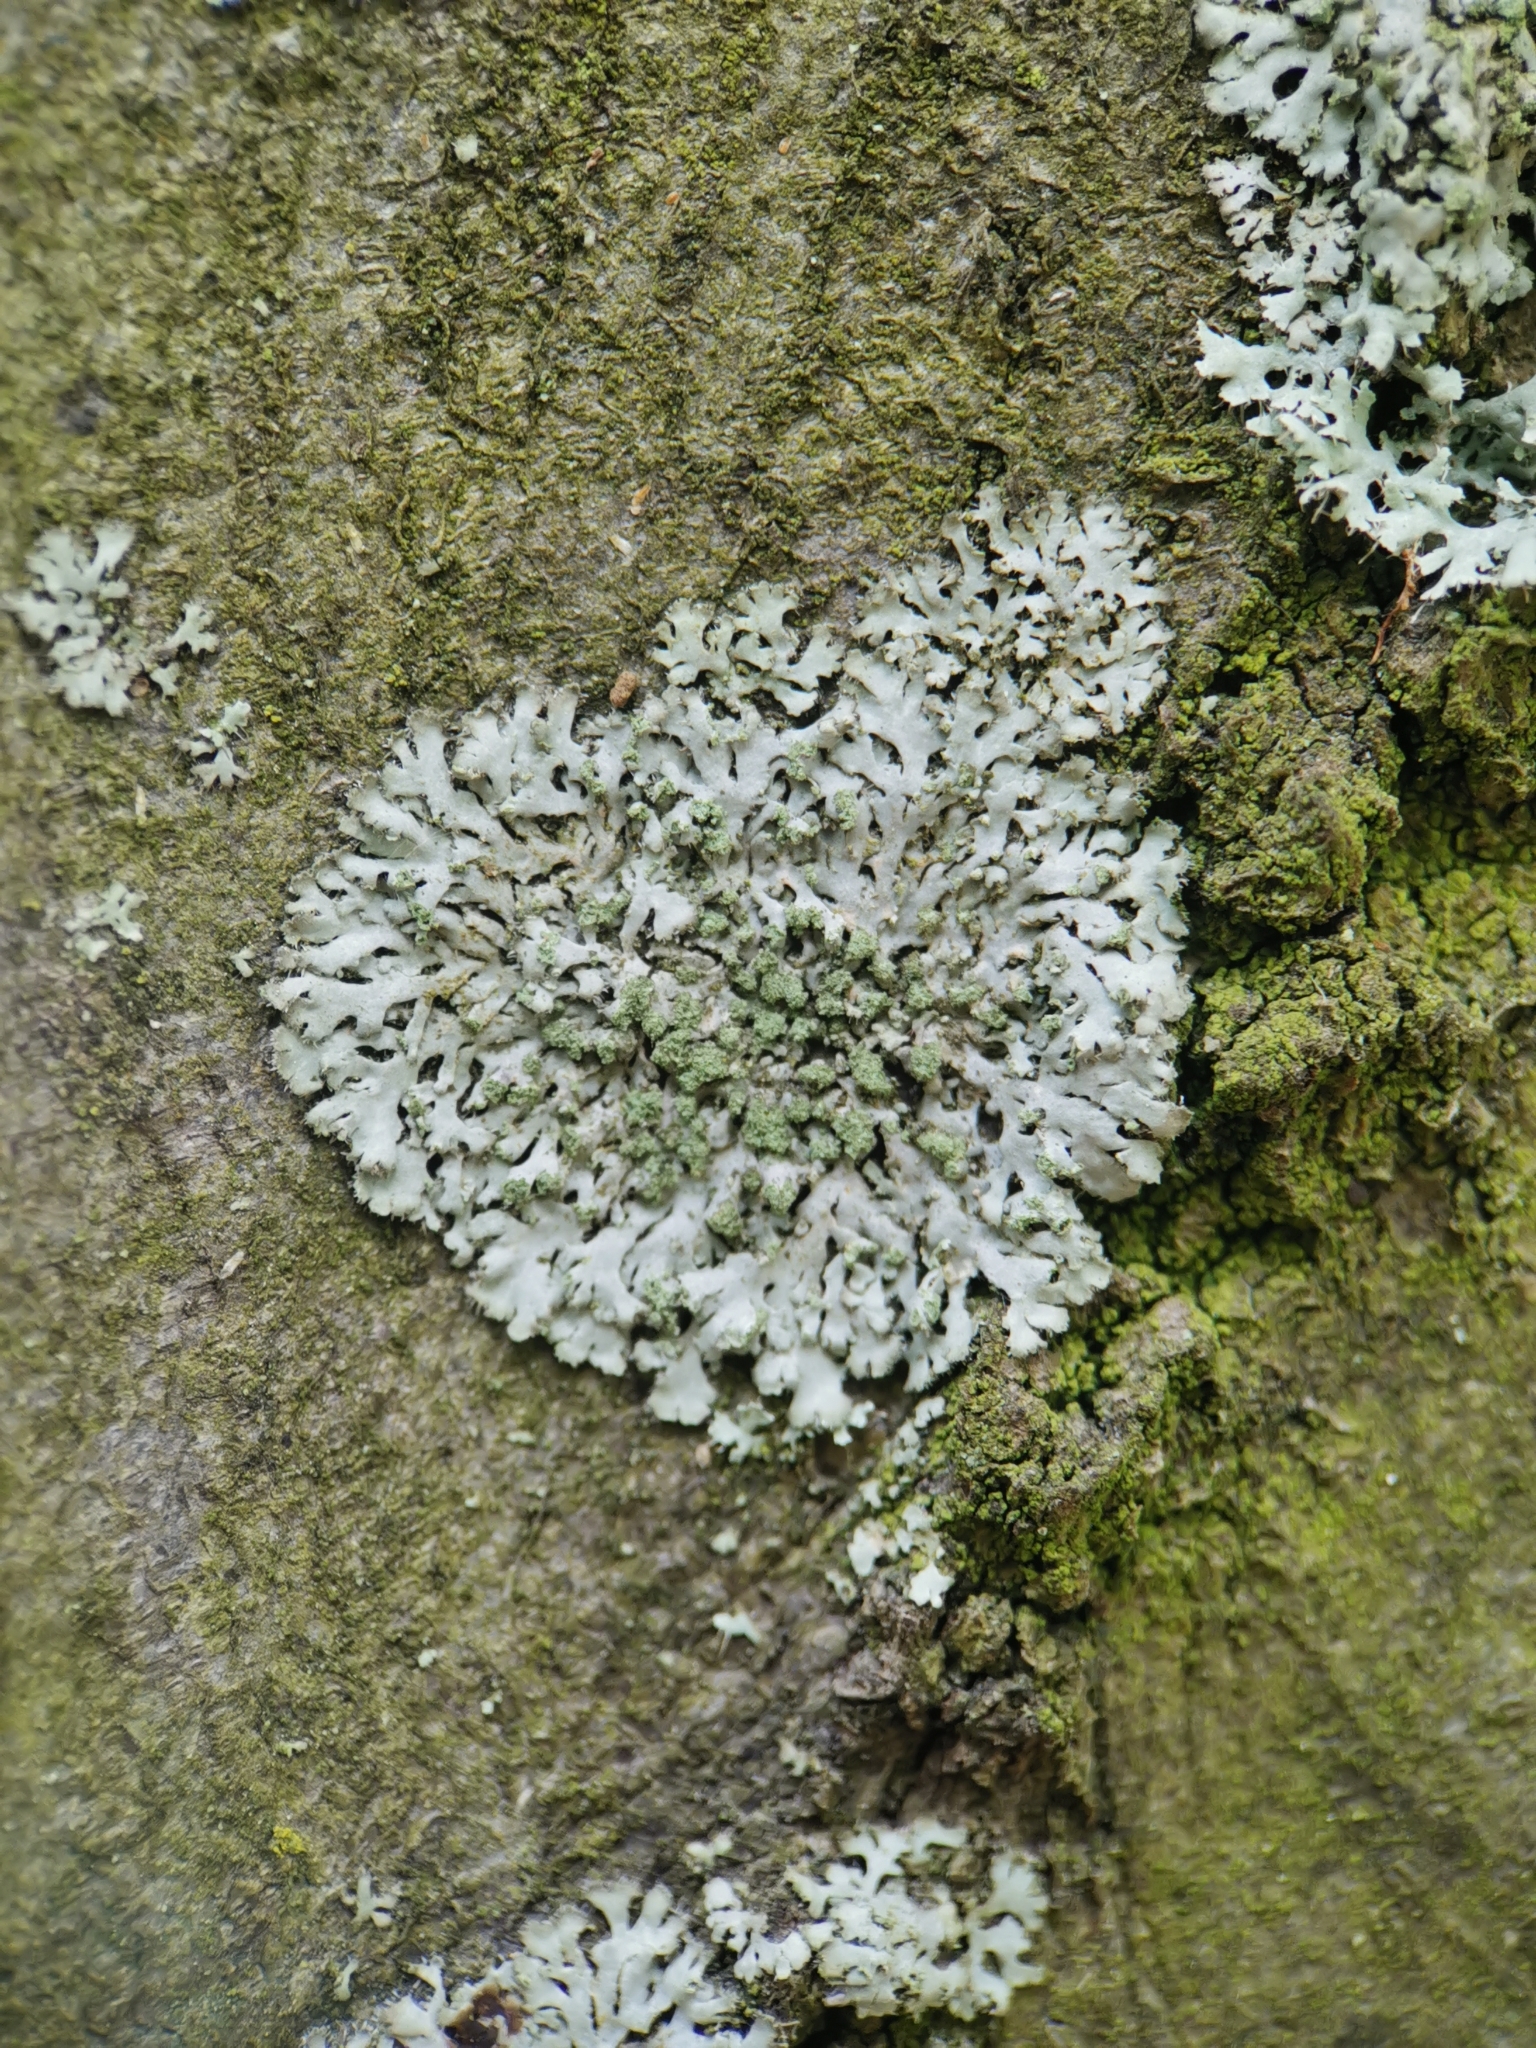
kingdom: Fungi
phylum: Ascomycota
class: Lecanoromycetes
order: Caliciales
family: Physciaceae
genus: Phaeophyscia
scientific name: Phaeophyscia orbicularis
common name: Mealy shadow lichen
